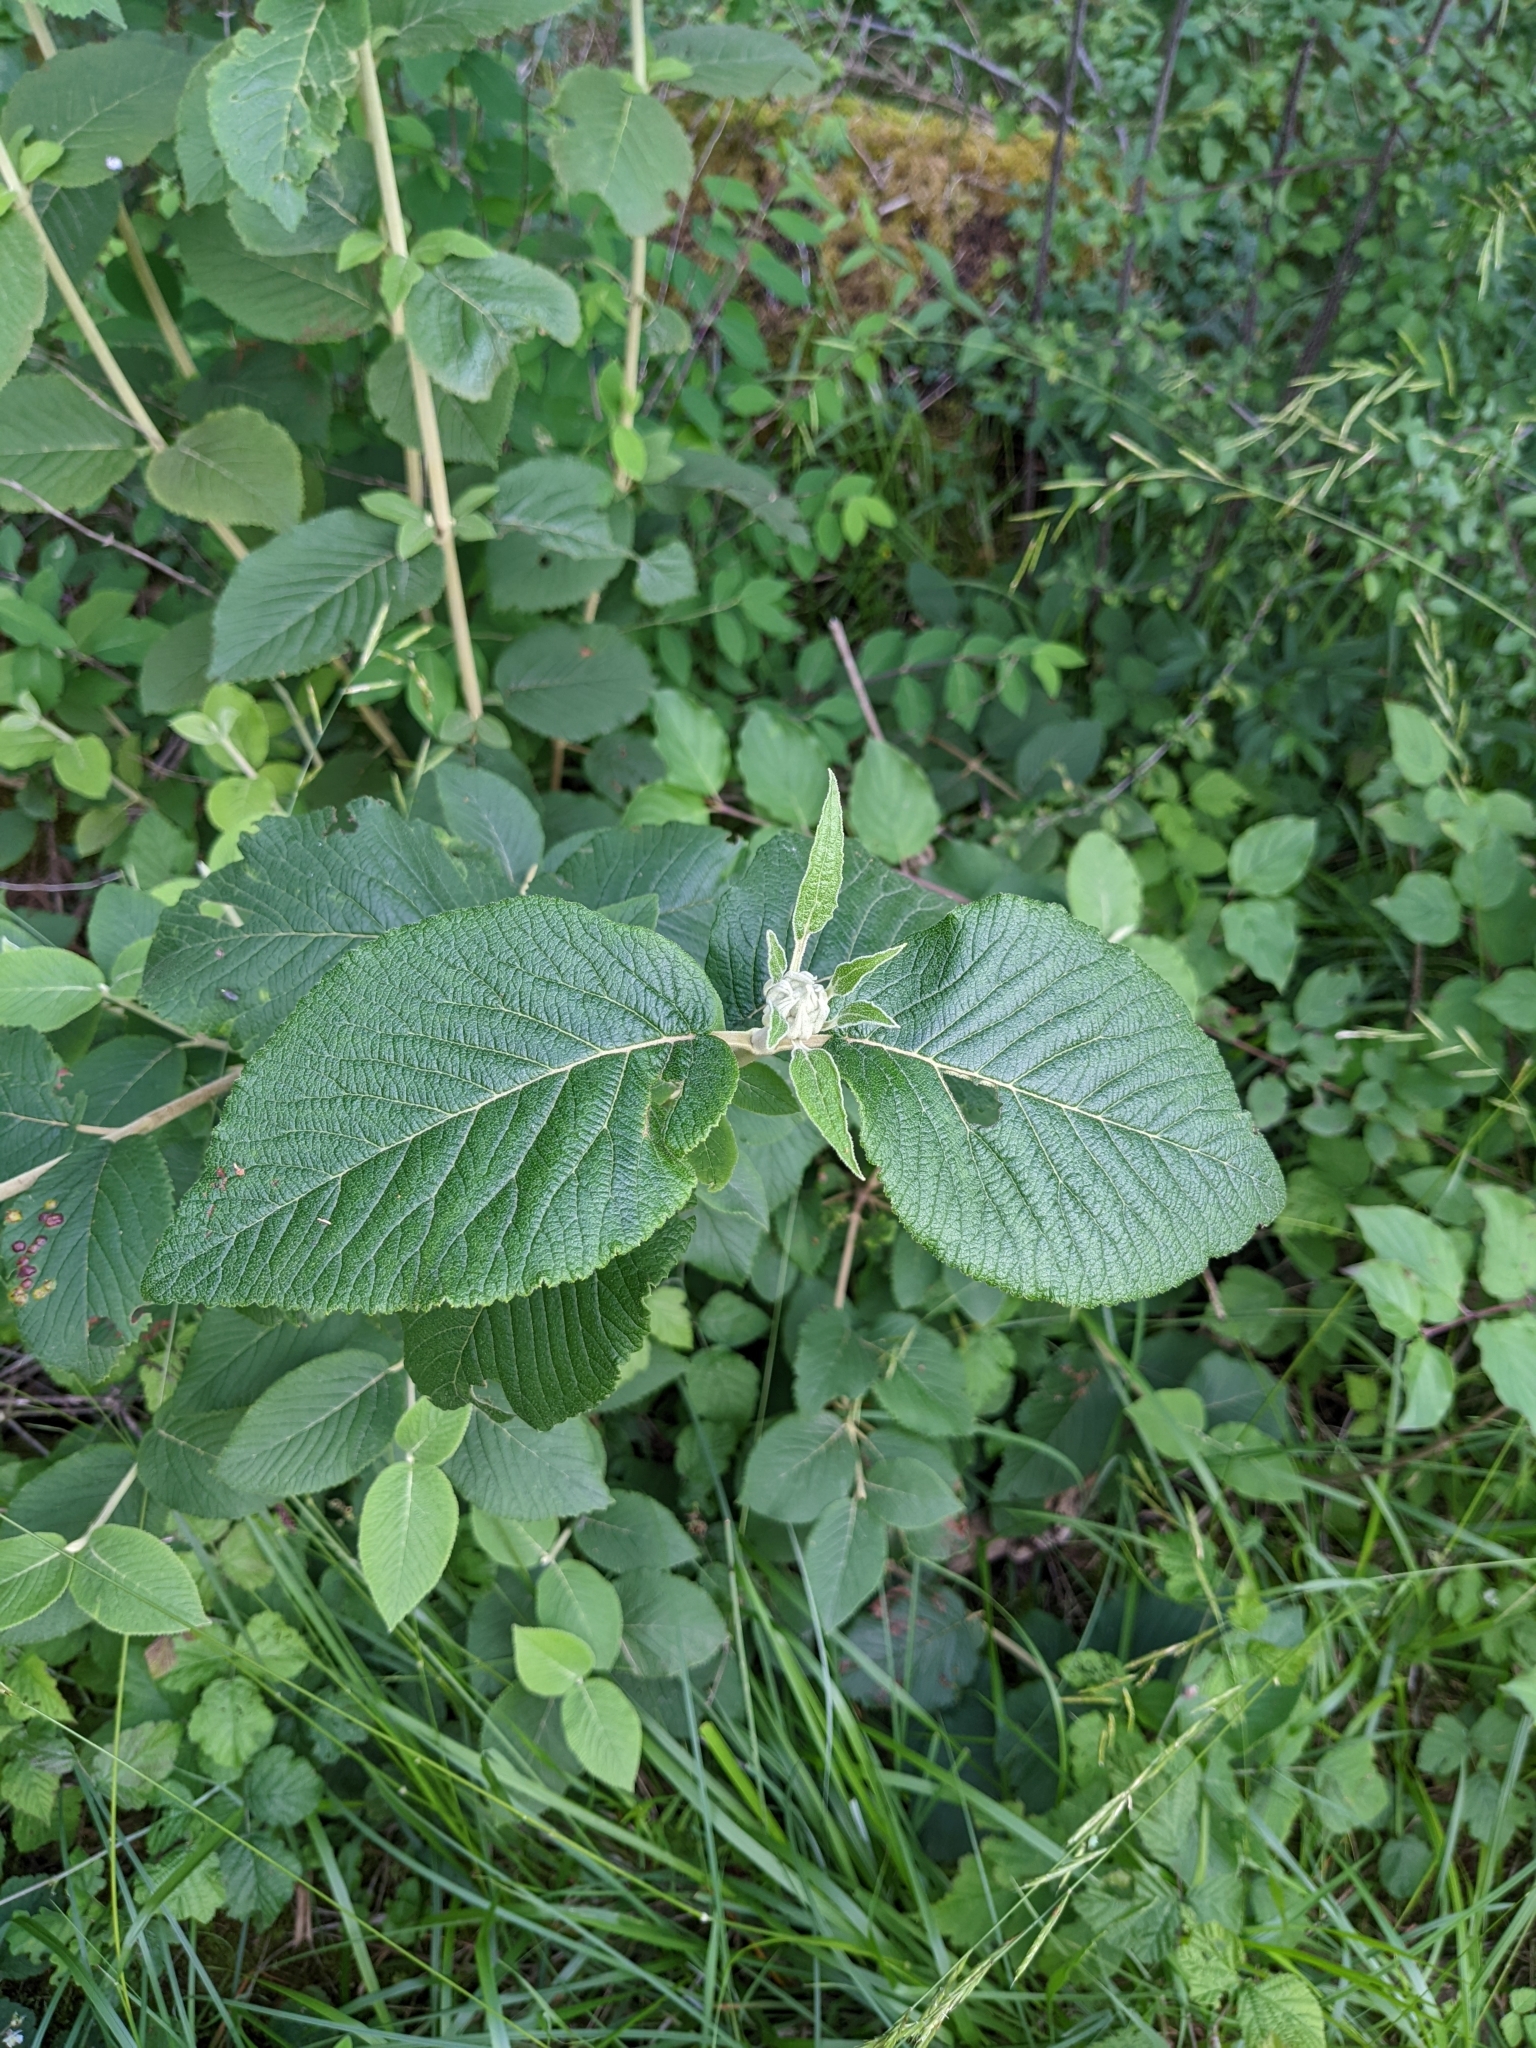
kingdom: Plantae
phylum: Tracheophyta
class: Magnoliopsida
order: Dipsacales
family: Viburnaceae
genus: Viburnum
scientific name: Viburnum lantana
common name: Wayfaring tree
